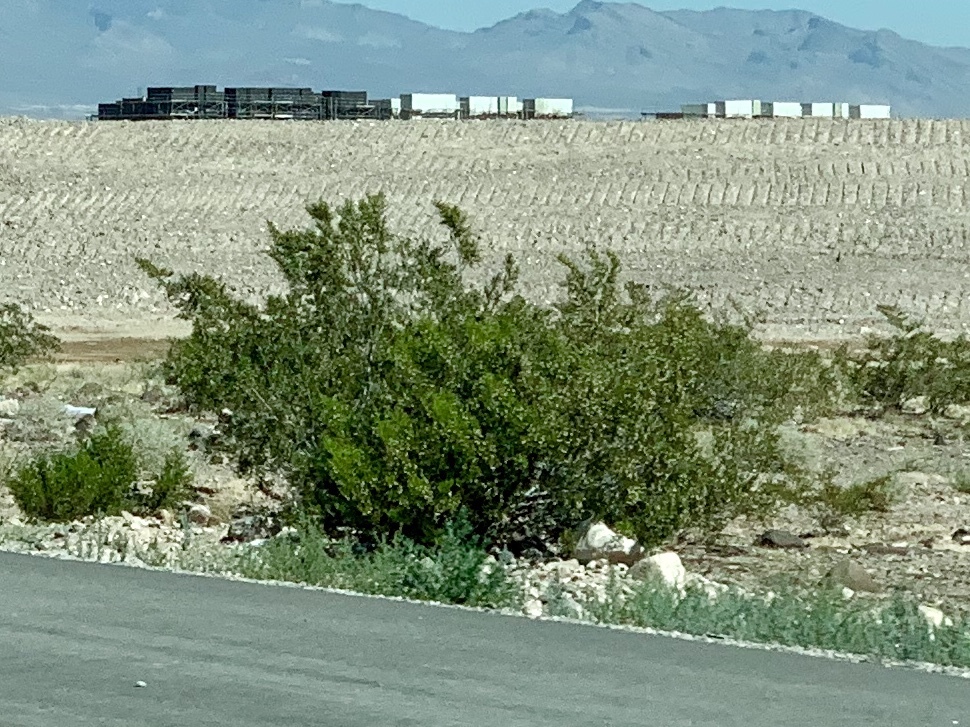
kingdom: Plantae
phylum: Tracheophyta
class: Magnoliopsida
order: Zygophyllales
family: Zygophyllaceae
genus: Larrea
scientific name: Larrea tridentata
